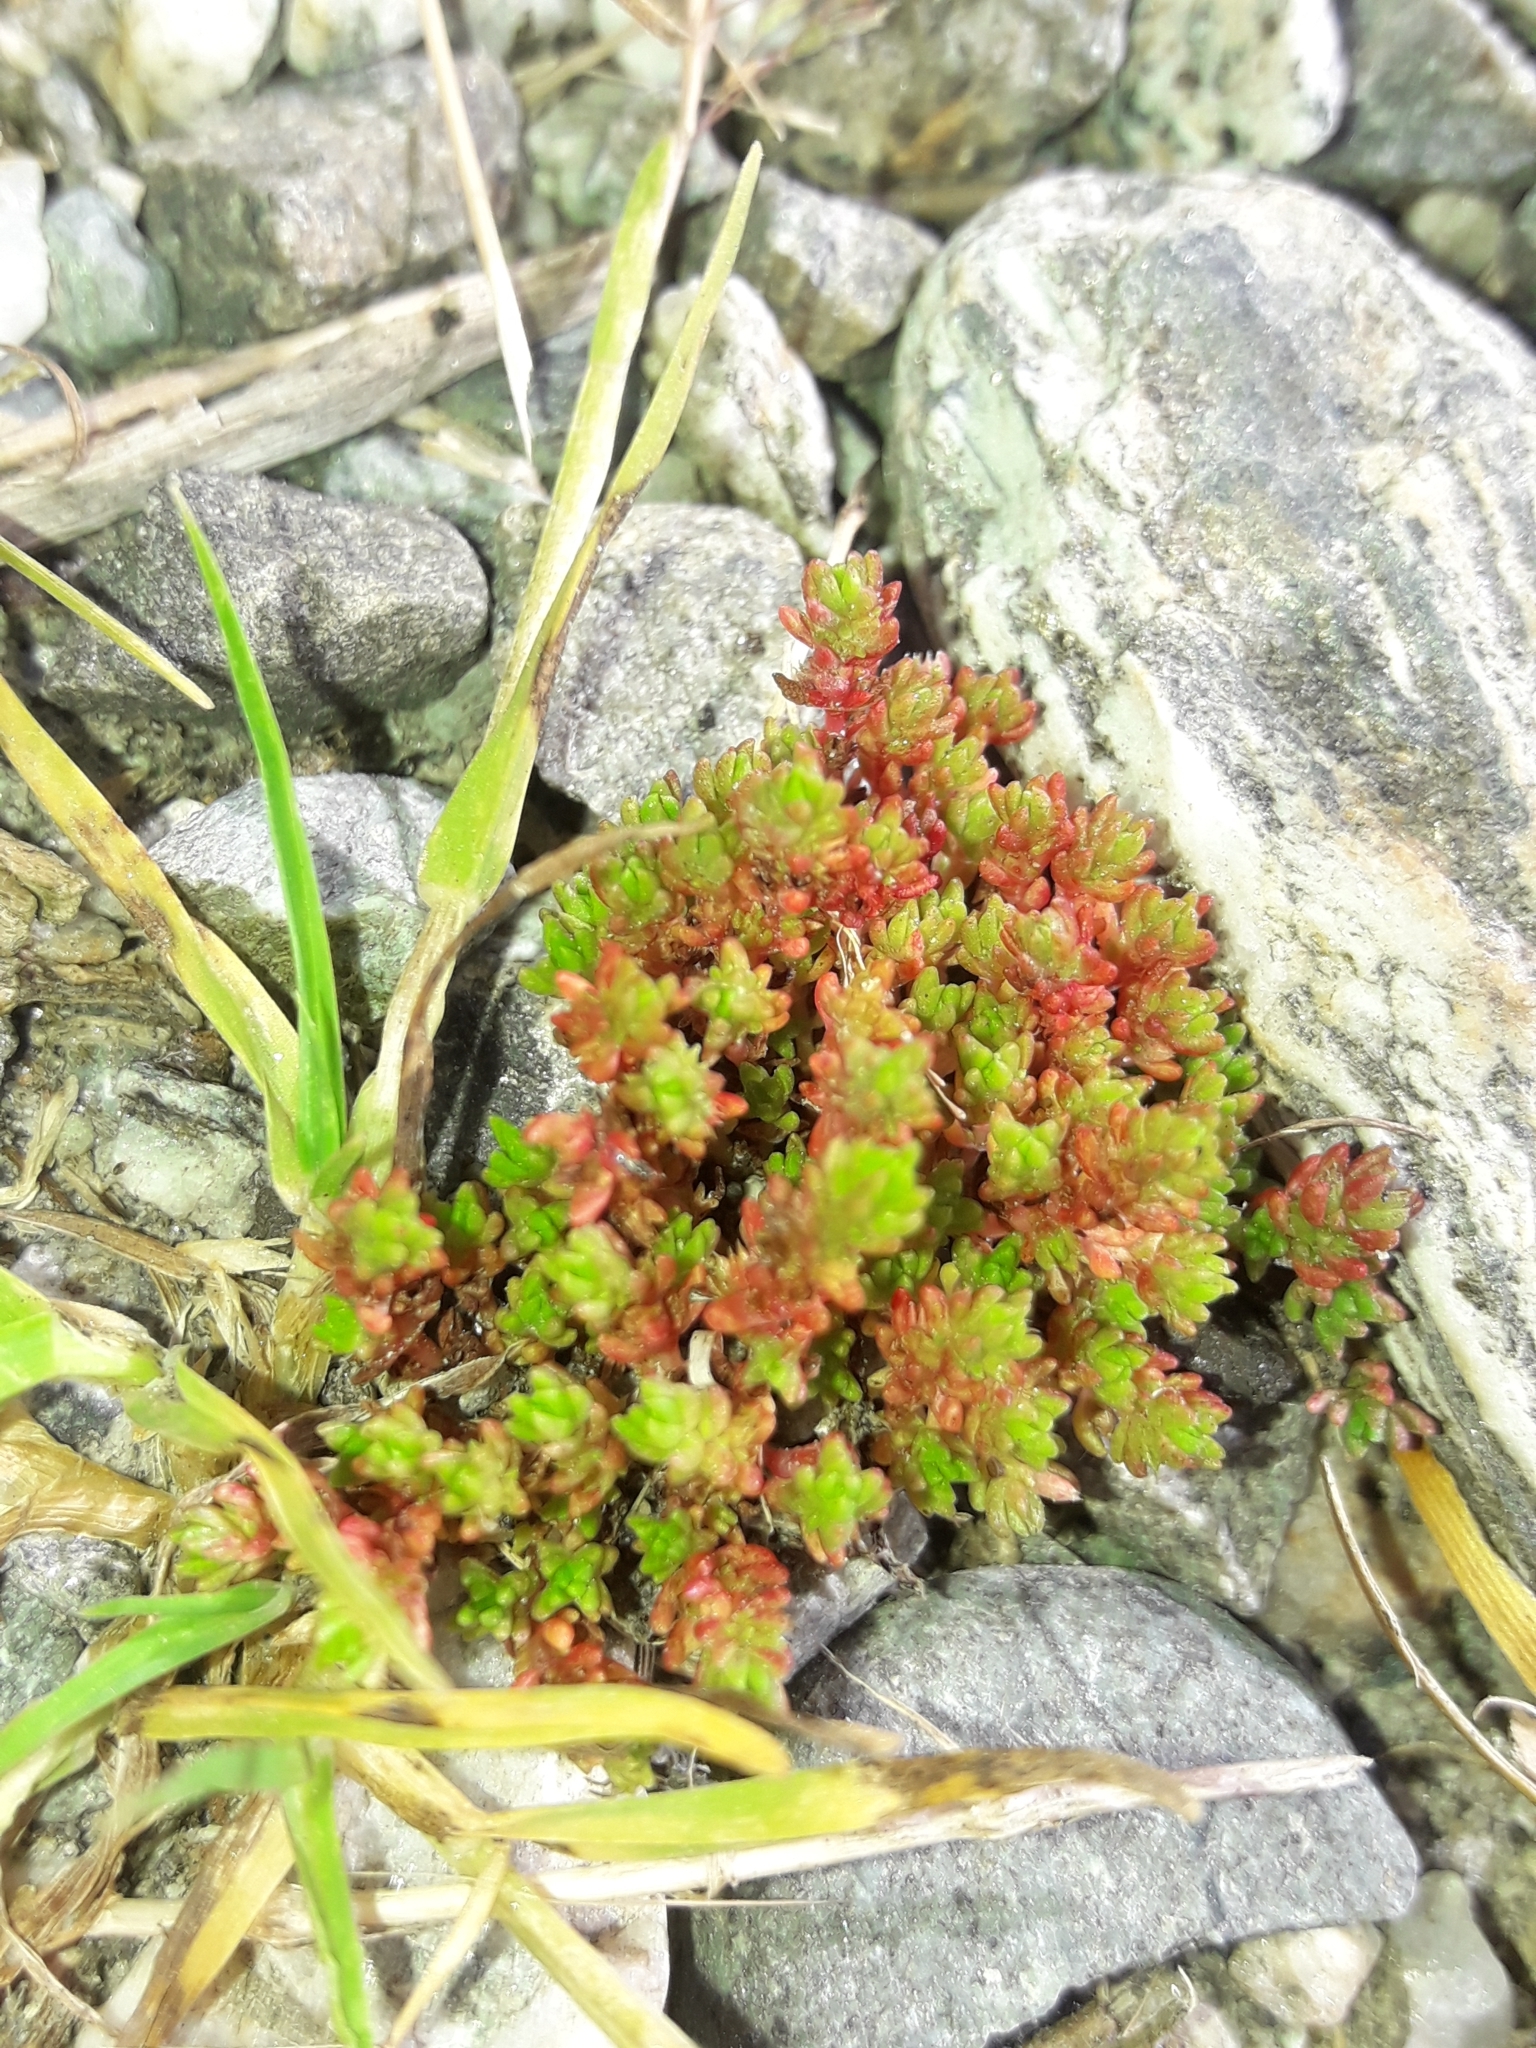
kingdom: Plantae
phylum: Tracheophyta
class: Magnoliopsida
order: Saxifragales
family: Crassulaceae
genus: Crassula
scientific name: Crassula moschata
